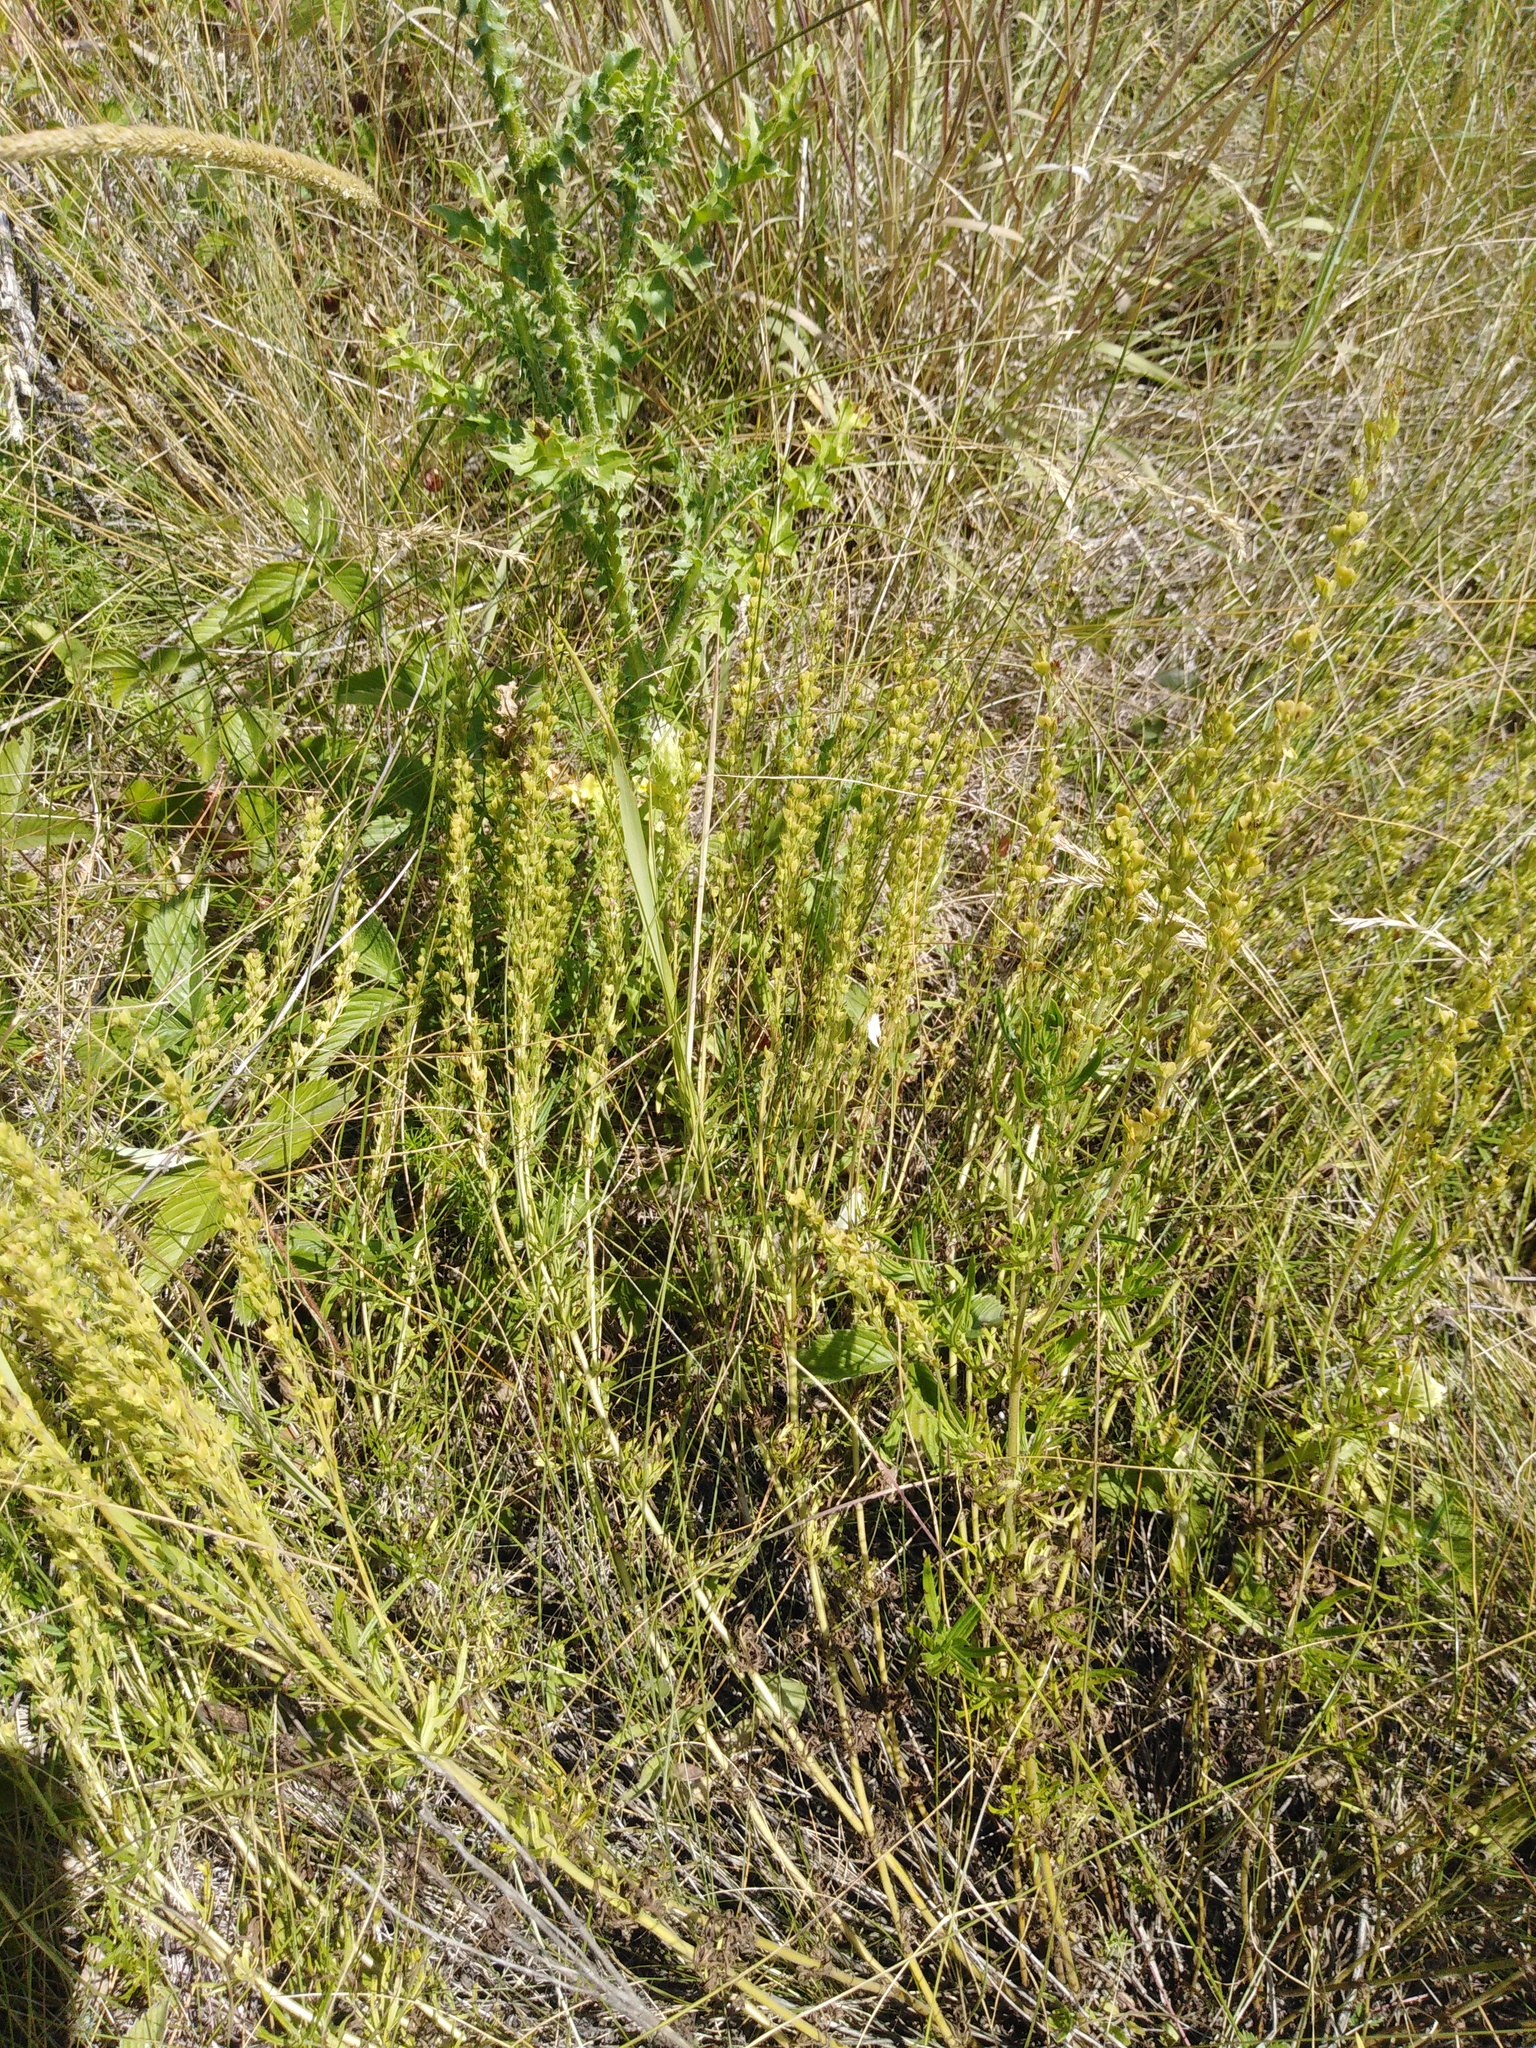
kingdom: Plantae
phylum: Tracheophyta
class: Magnoliopsida
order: Lamiales
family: Plantaginaceae
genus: Veronica
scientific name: Veronica austriaca
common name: Large speedwell
